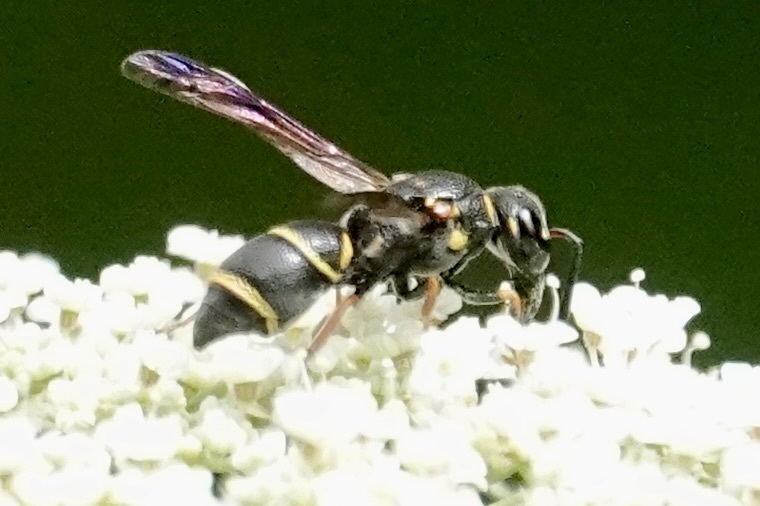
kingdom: Animalia
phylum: Arthropoda
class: Insecta
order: Hymenoptera
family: Eumenidae
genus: Parancistrocerus
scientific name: Parancistrocerus fulvipes
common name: Potter wasp
